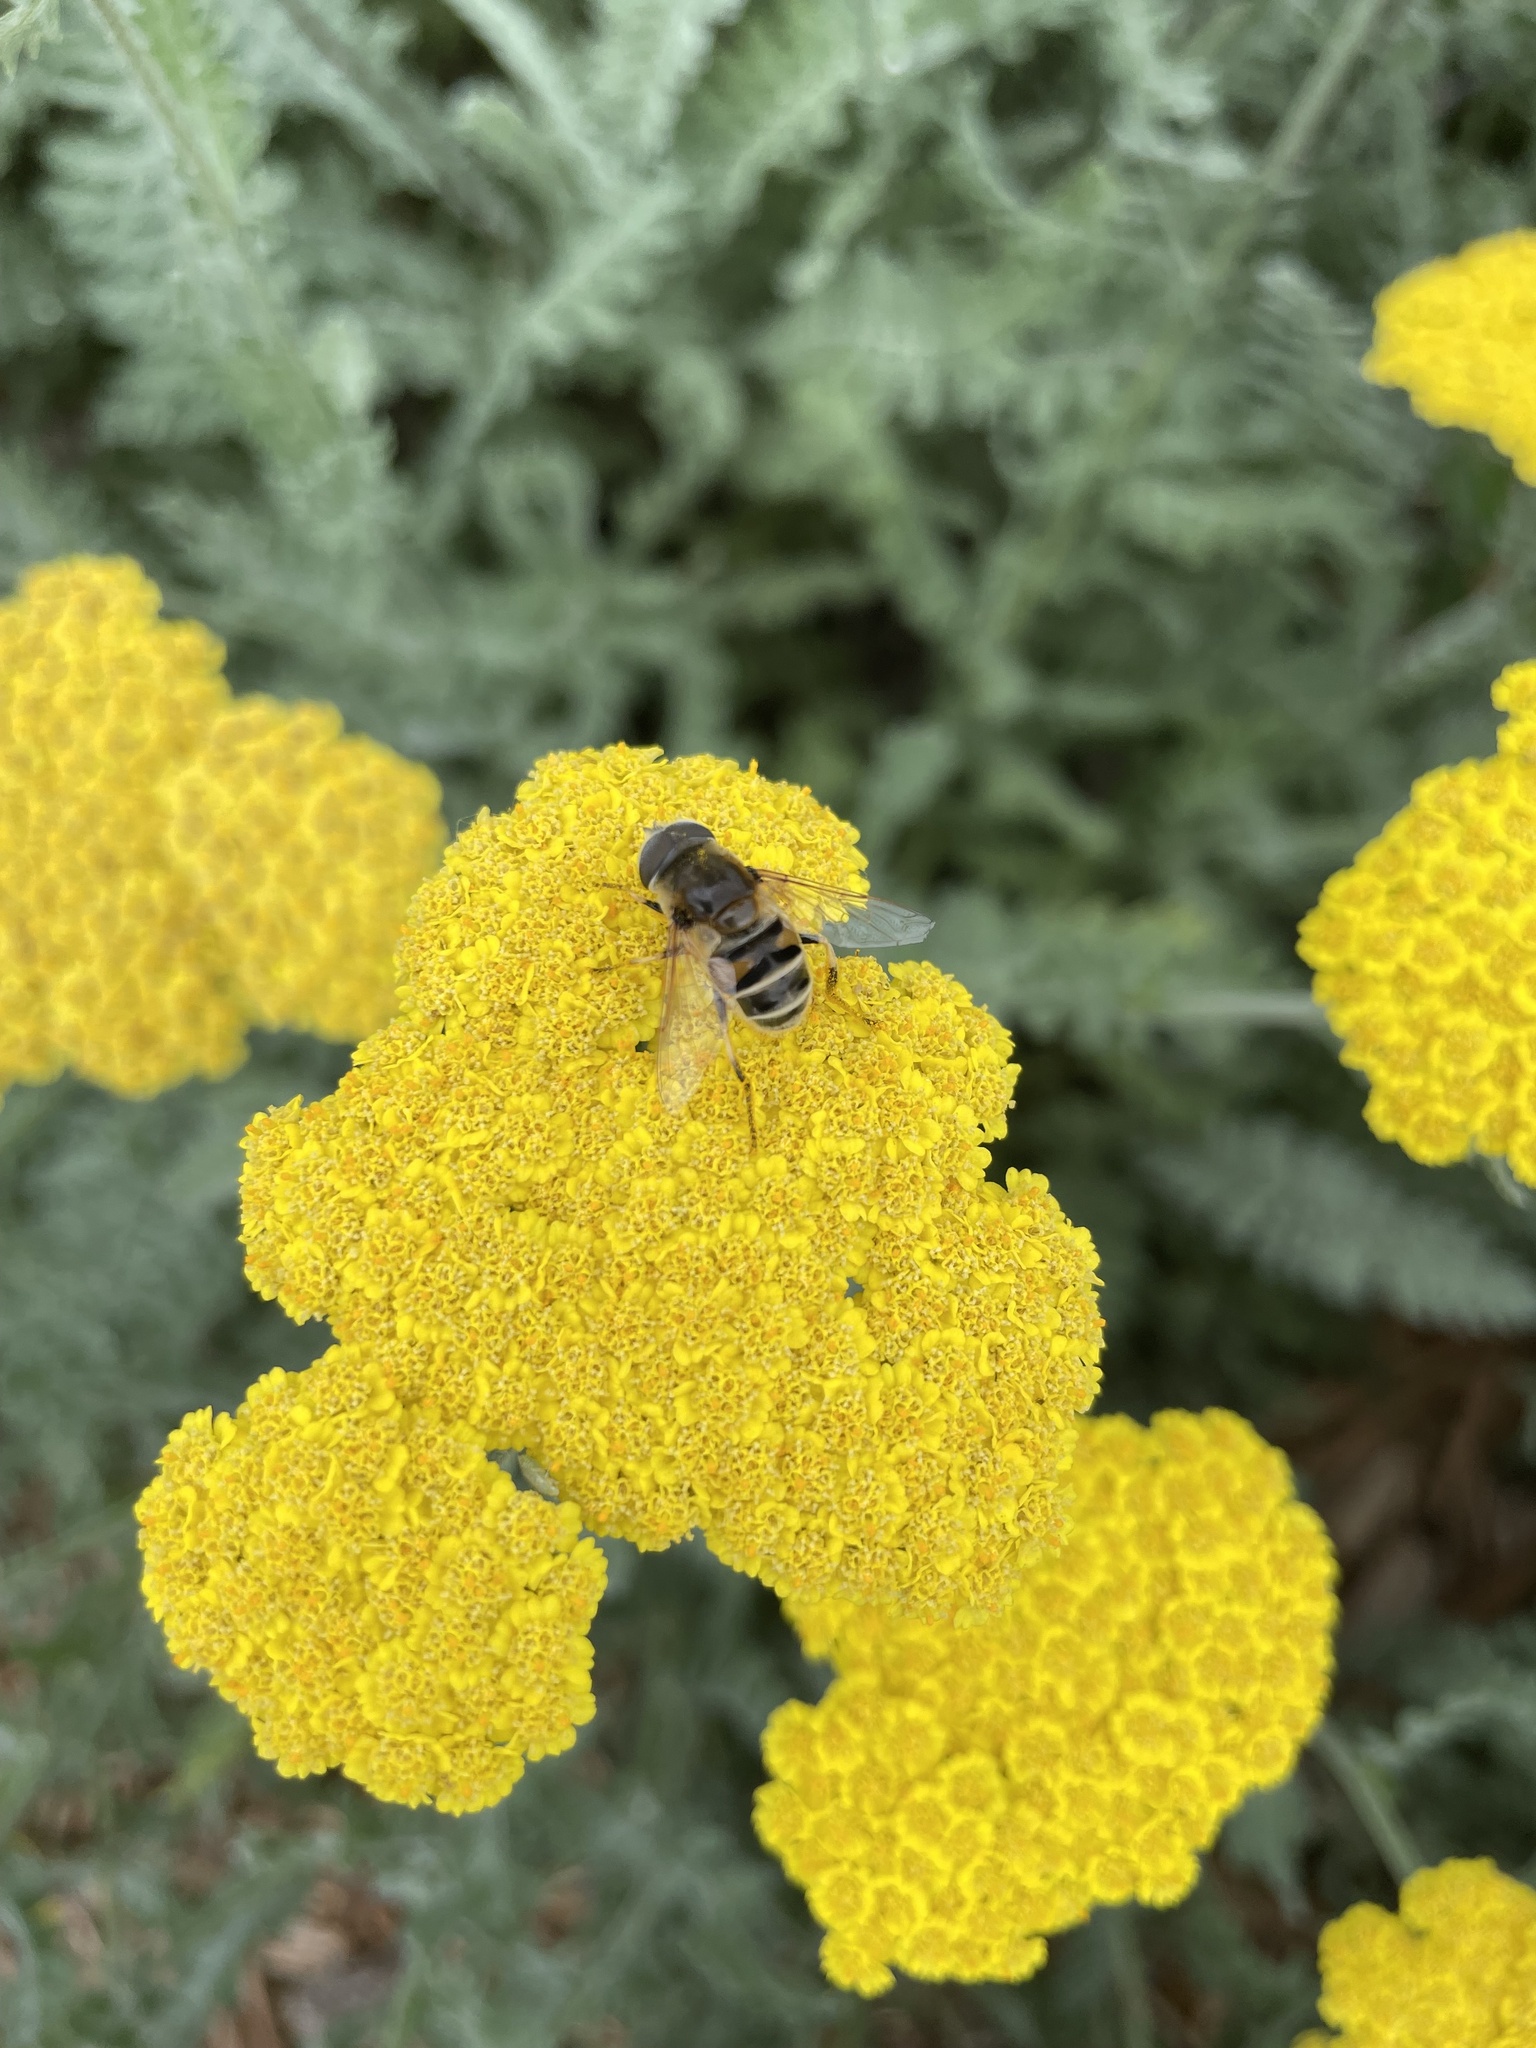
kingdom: Animalia
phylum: Arthropoda
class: Insecta
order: Diptera
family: Syrphidae
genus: Eristalis
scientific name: Eristalis stipator
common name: Yellow-shouldered drone fly
